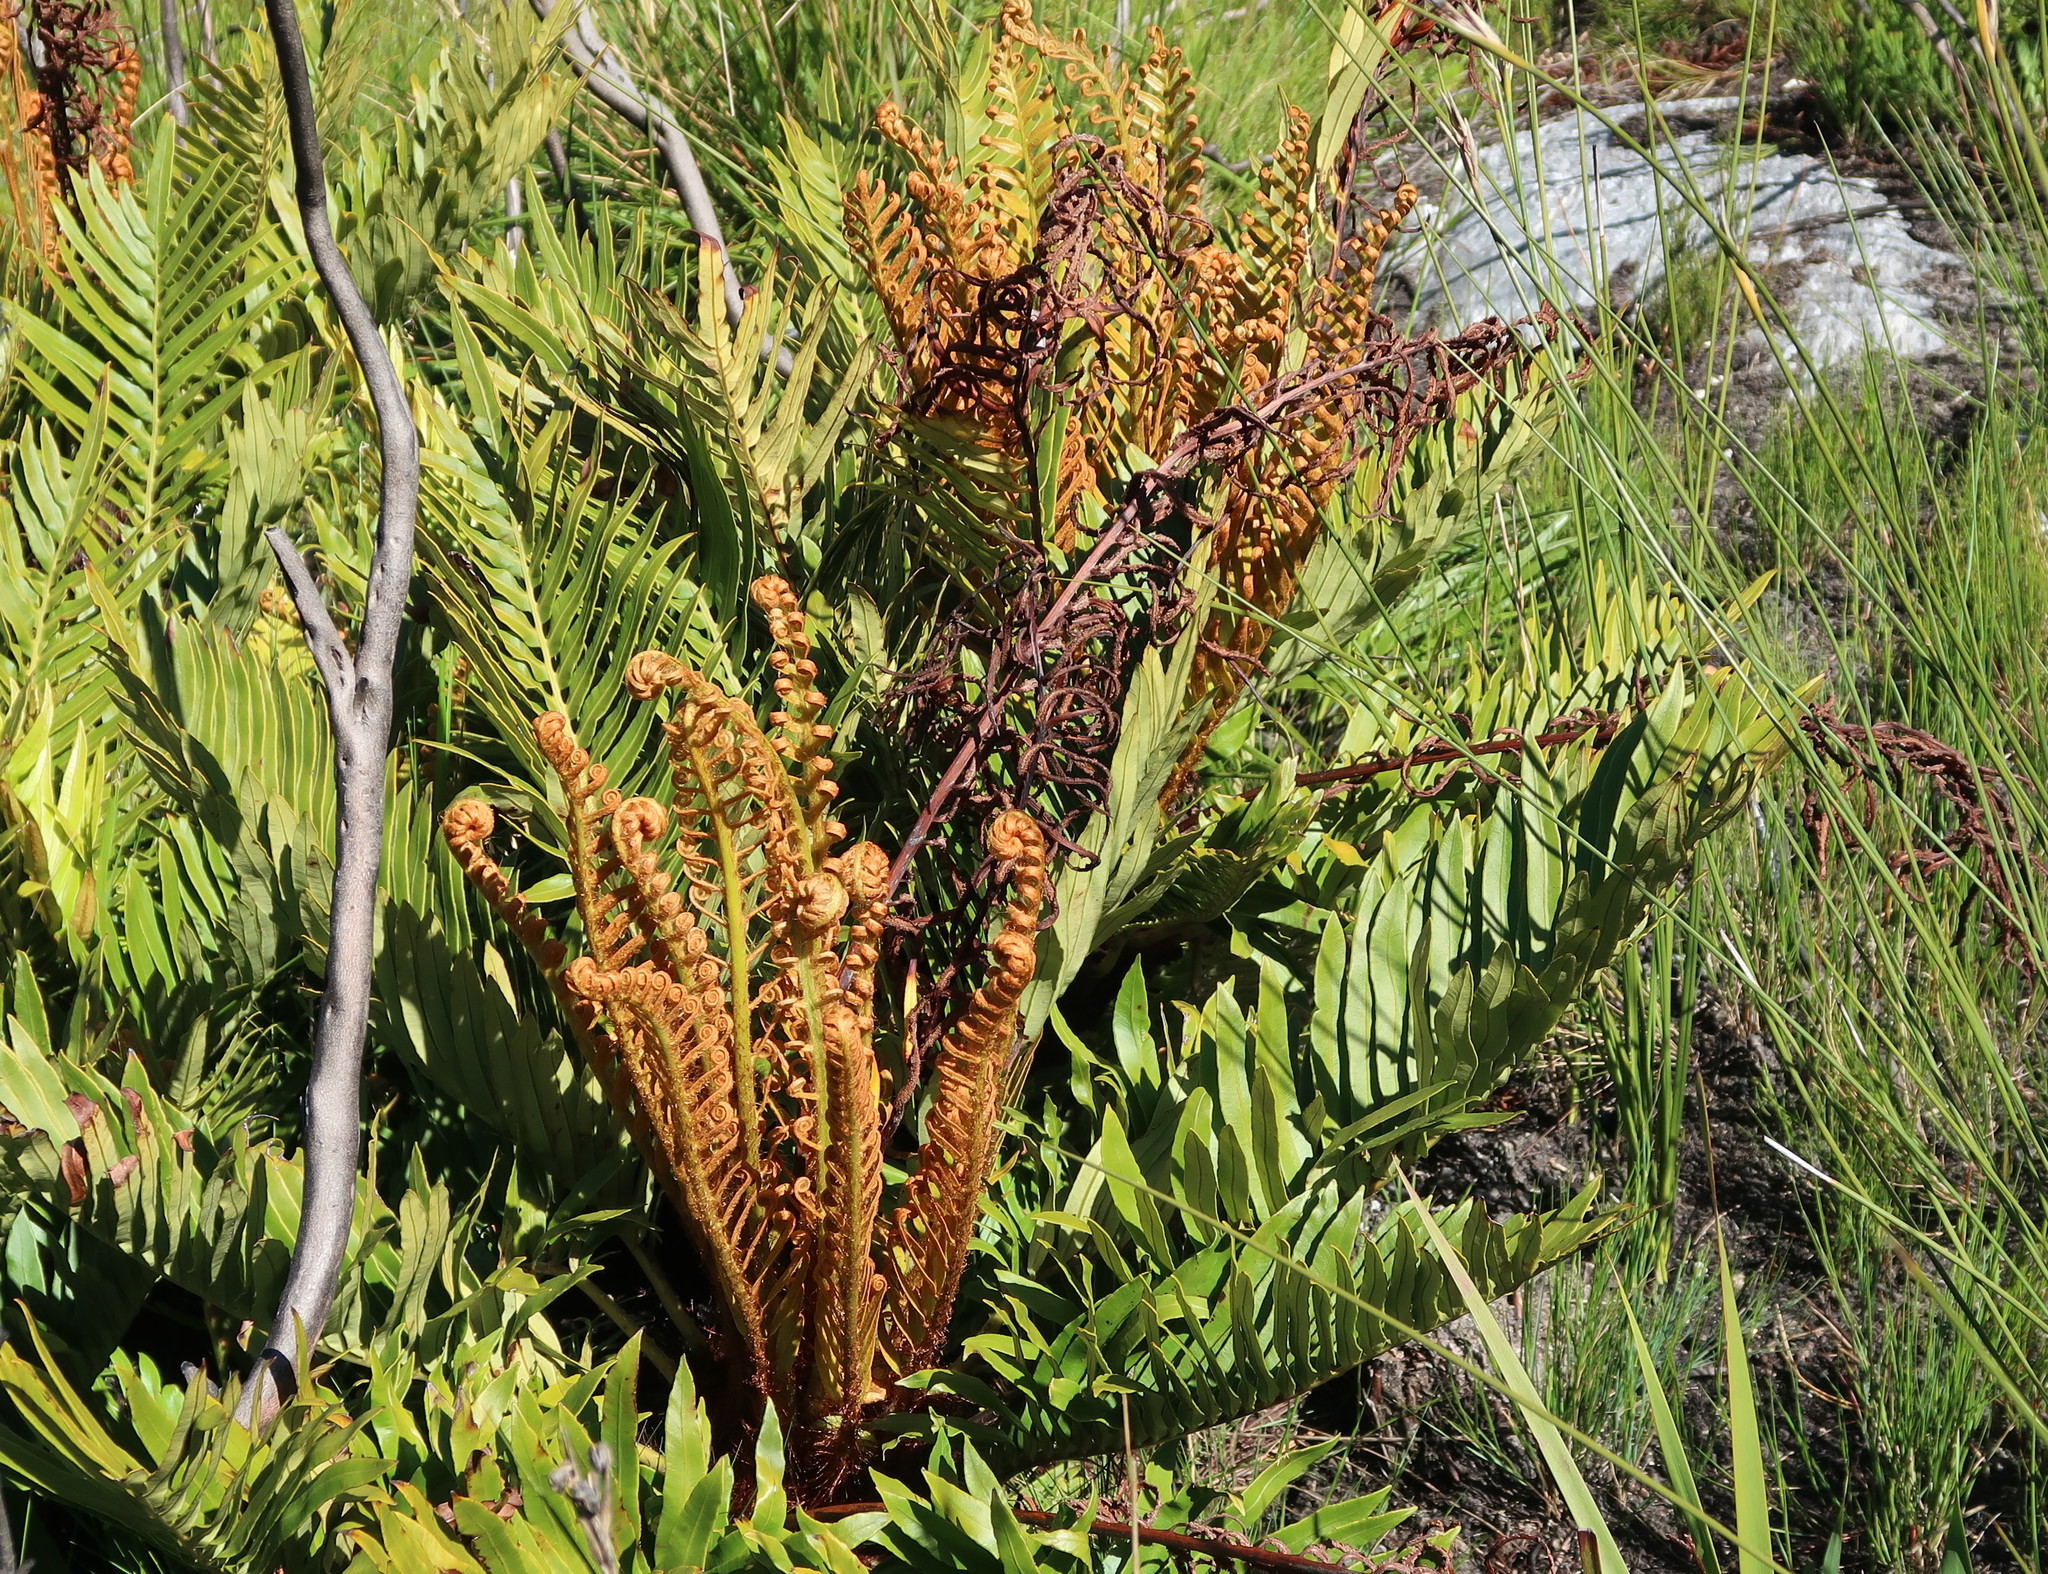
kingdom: Plantae
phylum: Tracheophyta
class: Polypodiopsida
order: Polypodiales
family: Blechnaceae
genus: Lomariocycas
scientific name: Lomariocycas tabularis
